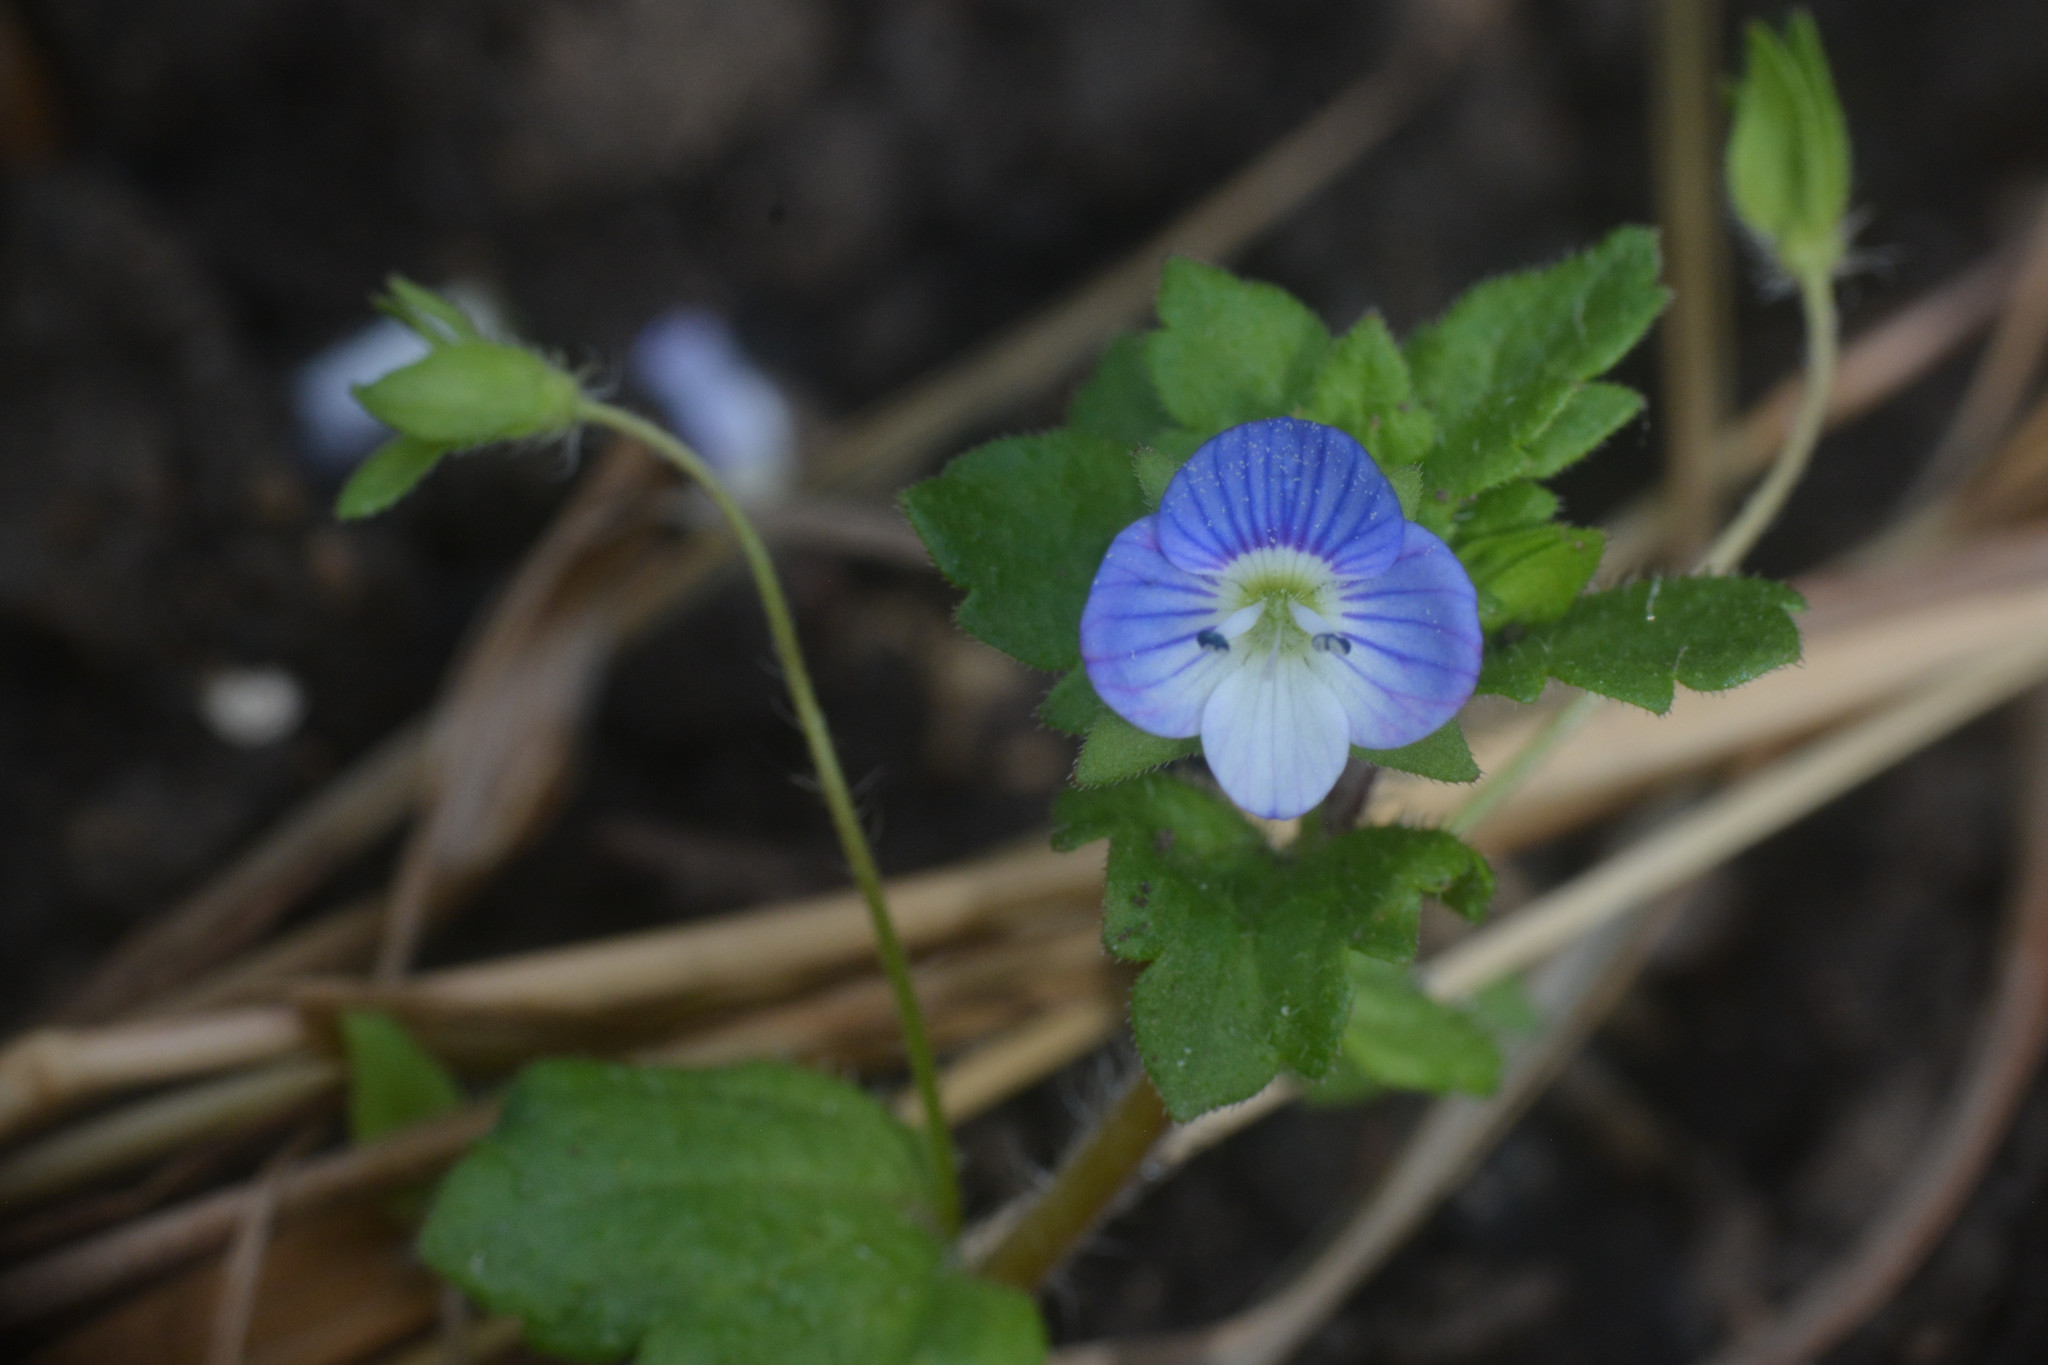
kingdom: Plantae
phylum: Tracheophyta
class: Magnoliopsida
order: Lamiales
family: Plantaginaceae
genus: Veronica
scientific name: Veronica persica
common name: Common field-speedwell
